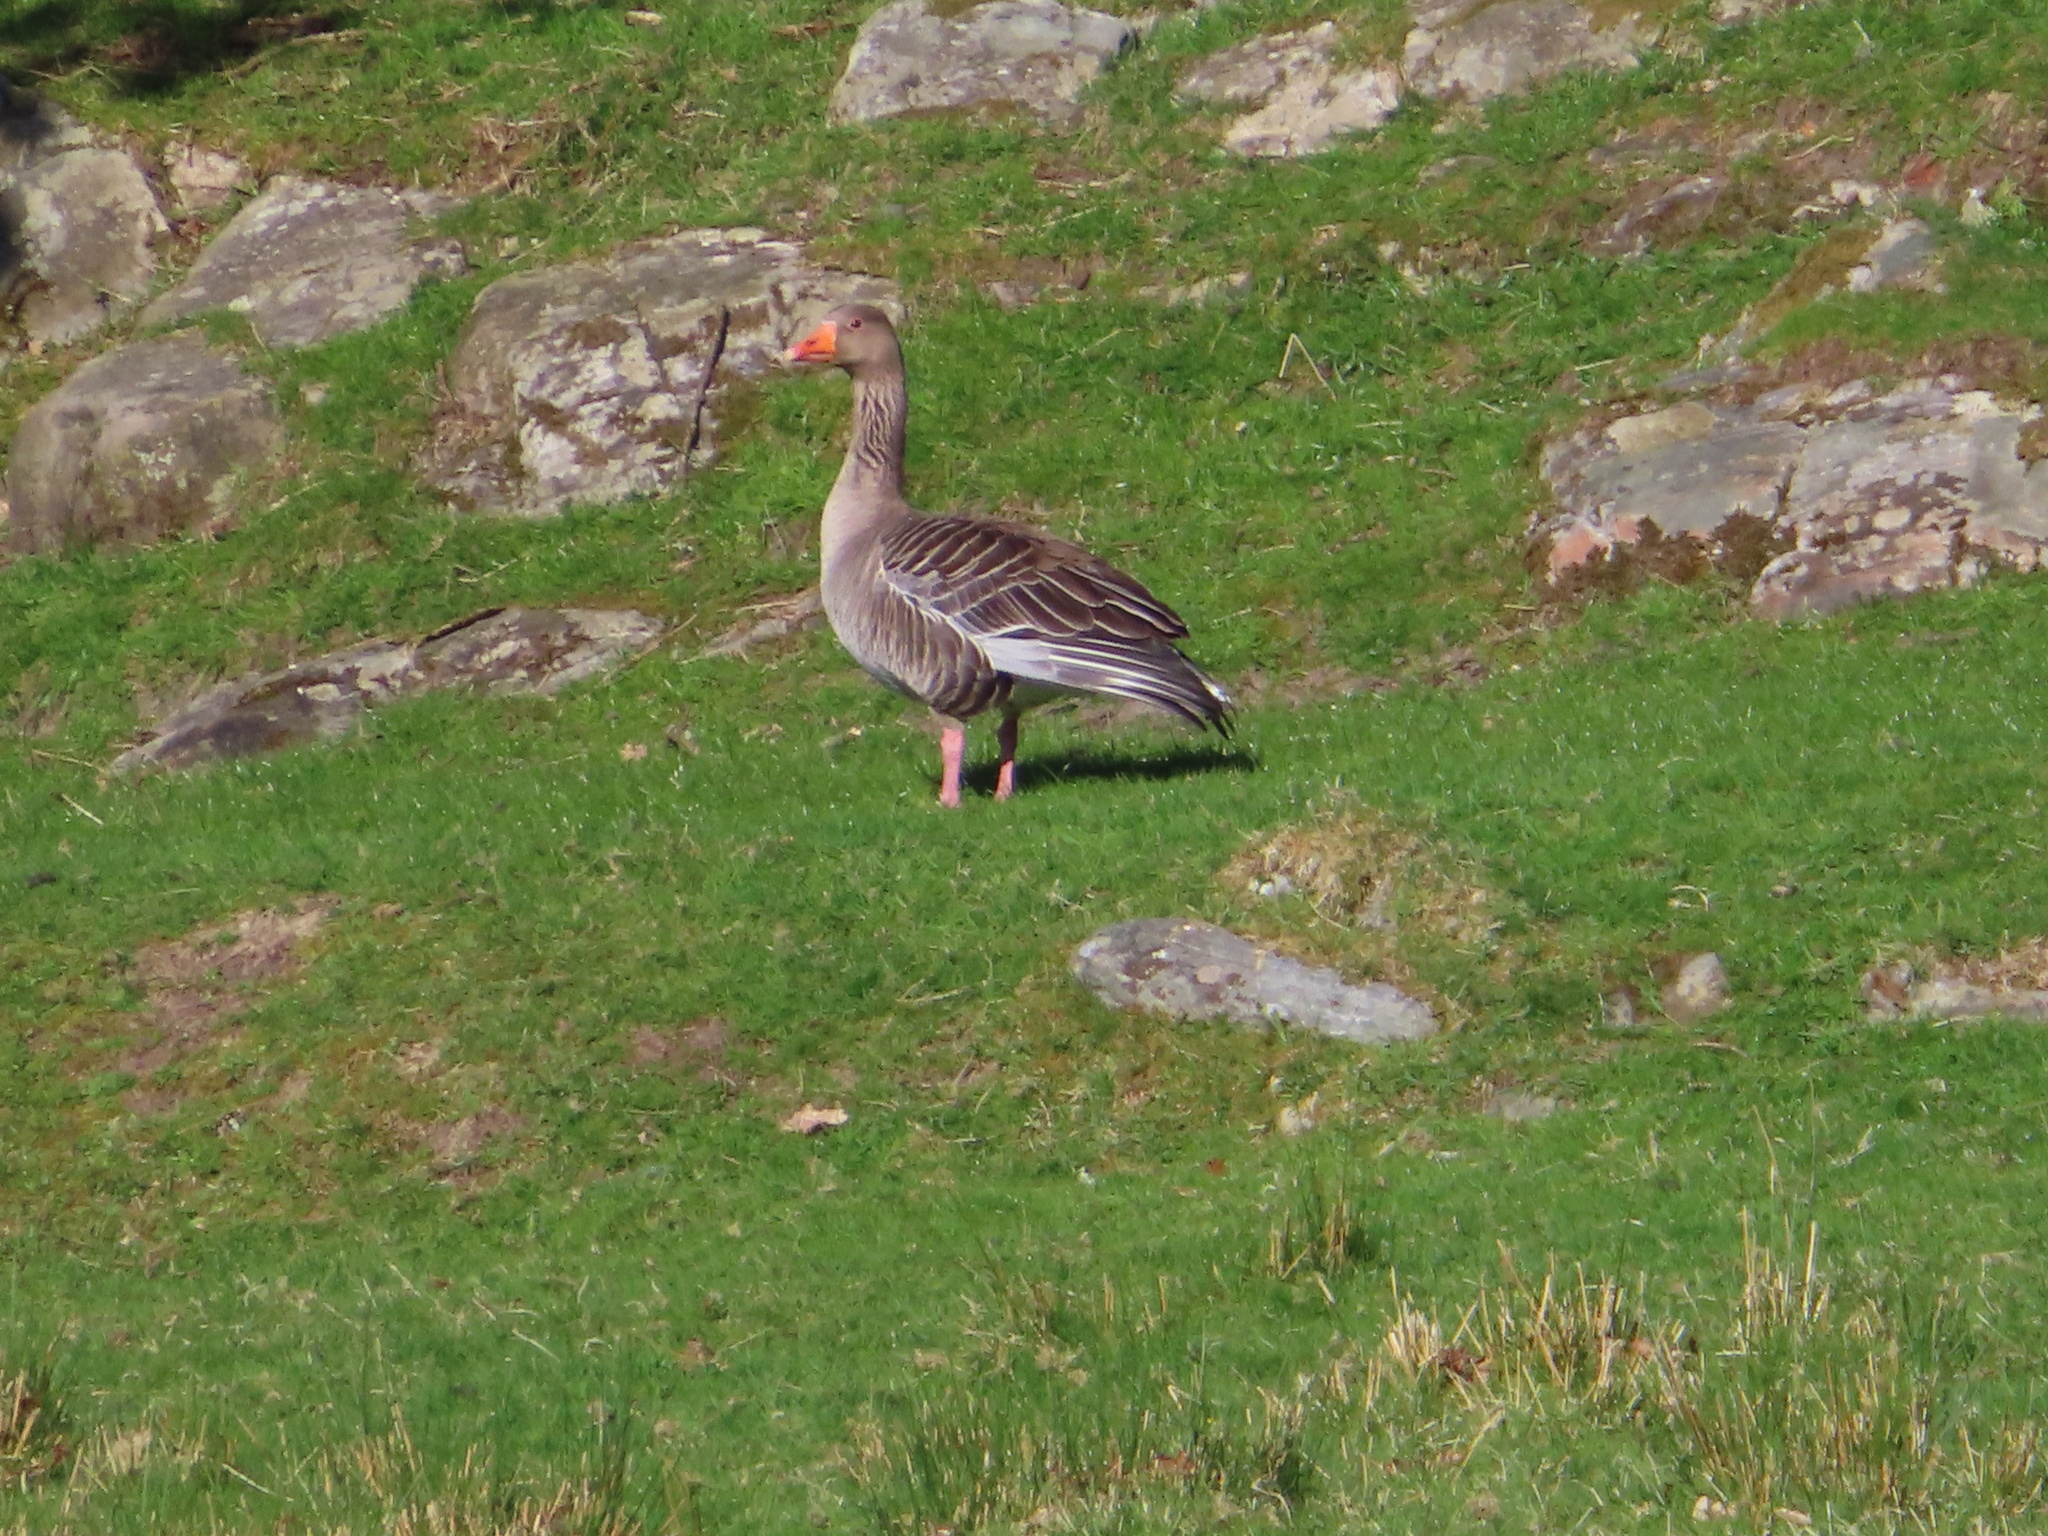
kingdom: Animalia
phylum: Chordata
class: Aves
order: Anseriformes
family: Anatidae
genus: Anser
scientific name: Anser anser
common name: Greylag goose
